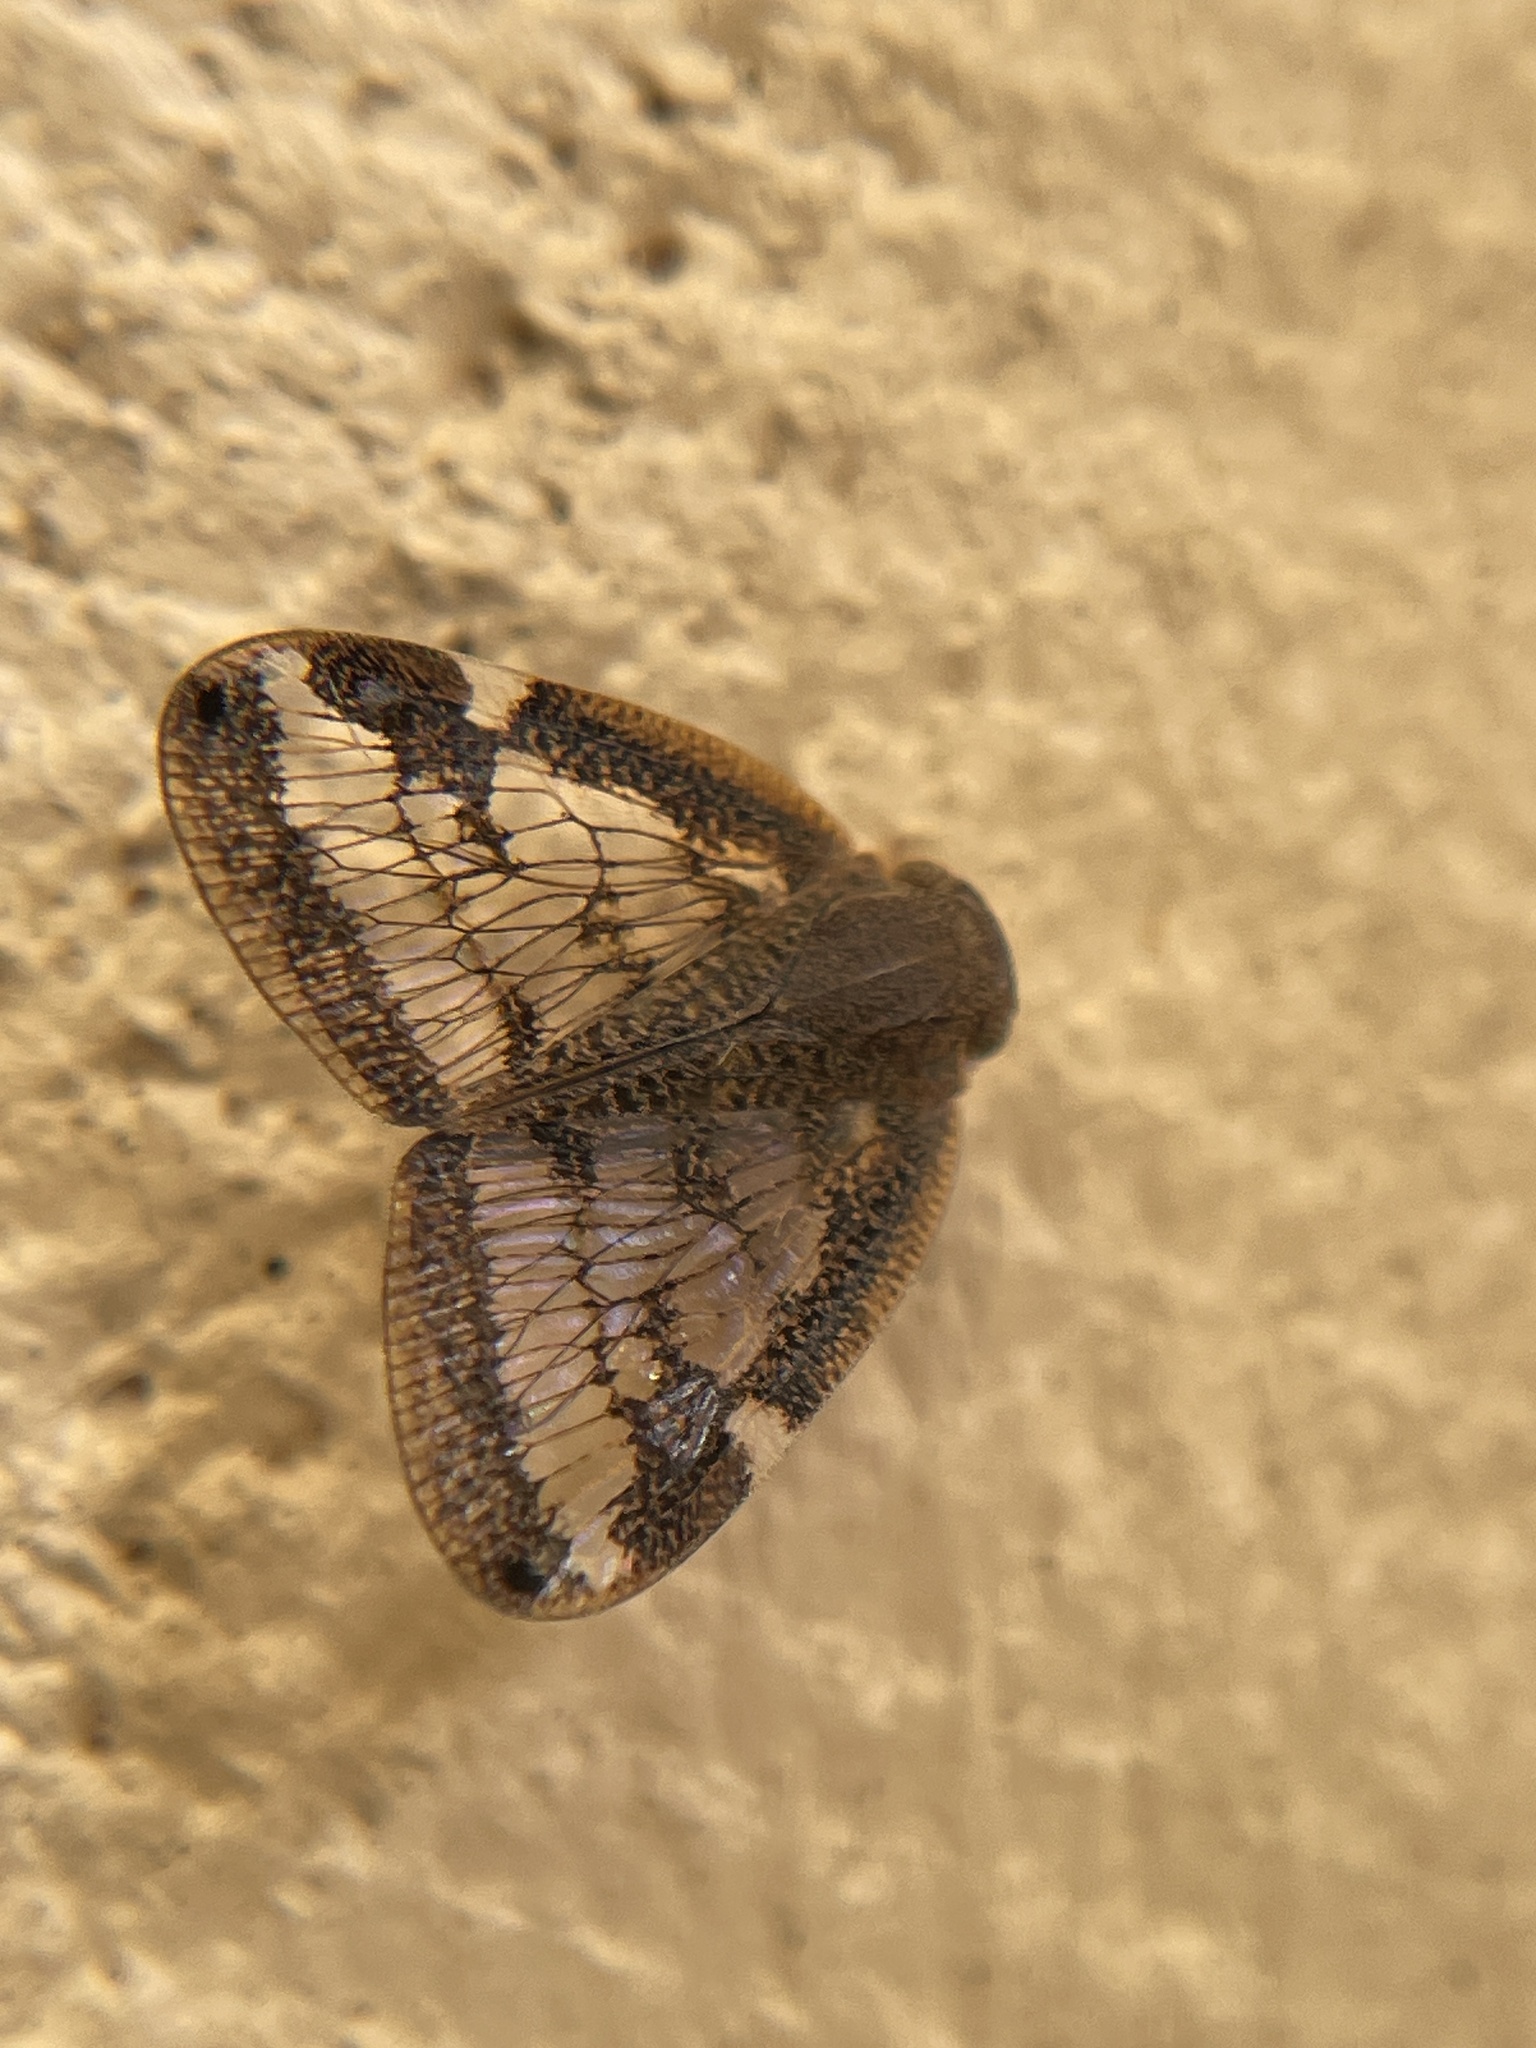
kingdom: Animalia
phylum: Arthropoda
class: Insecta
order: Hemiptera
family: Ricaniidae
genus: Scolypopa
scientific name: Scolypopa australis
